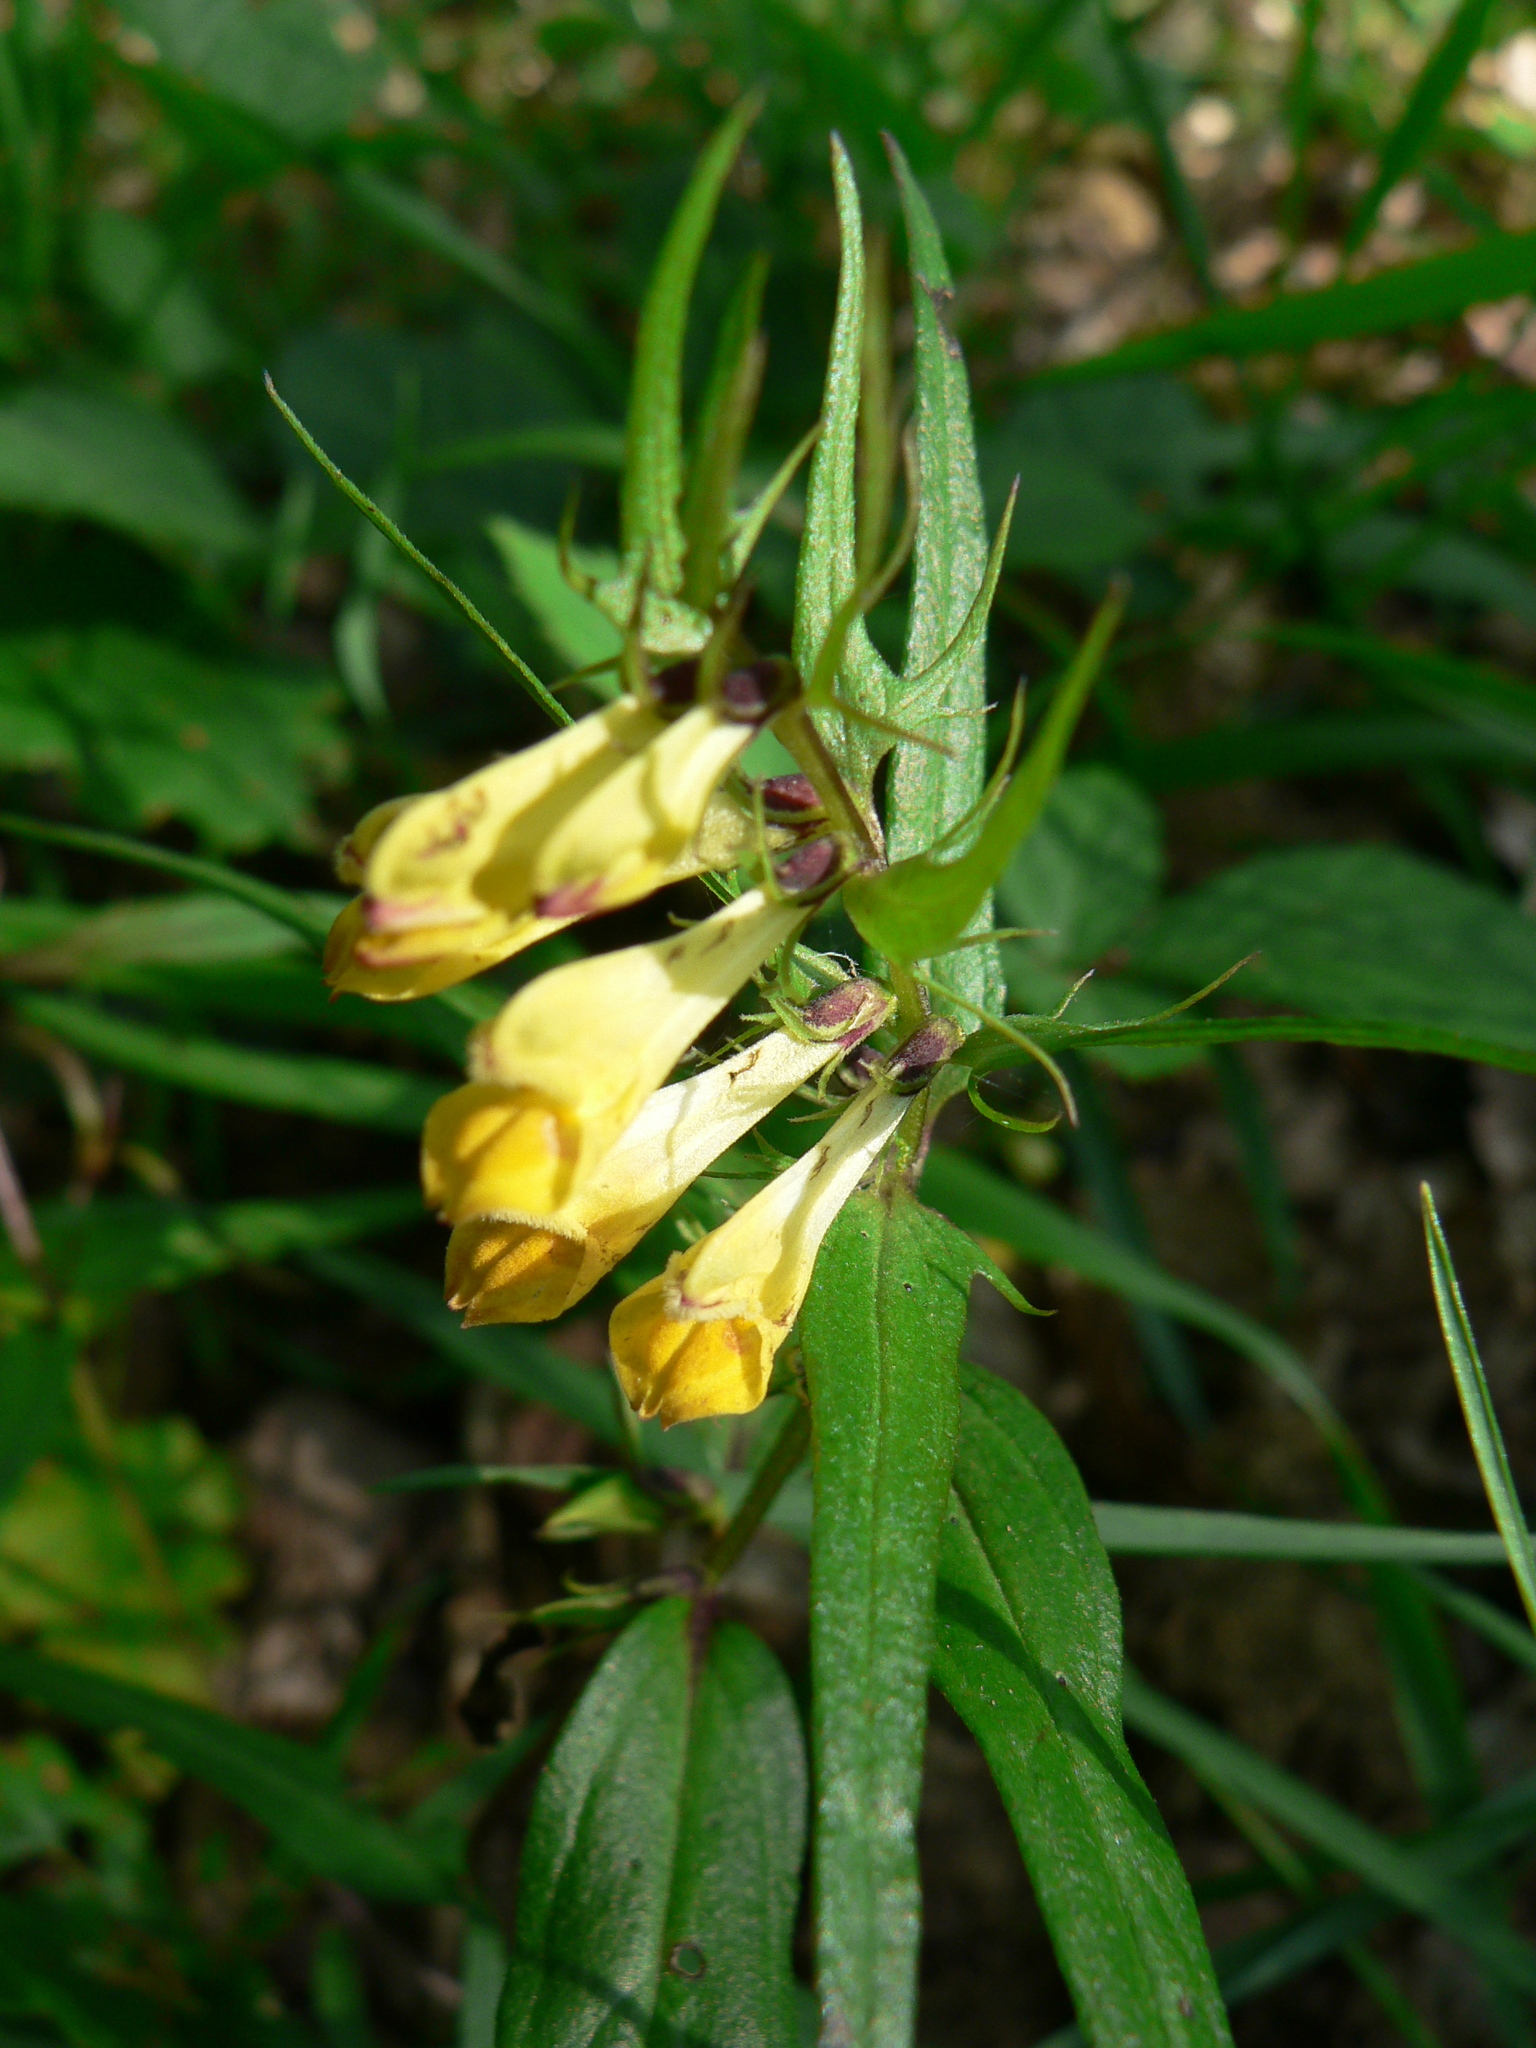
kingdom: Plantae
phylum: Tracheophyta
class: Magnoliopsida
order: Lamiales
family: Orobanchaceae
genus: Melampyrum
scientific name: Melampyrum pratense
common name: Common cow-wheat
